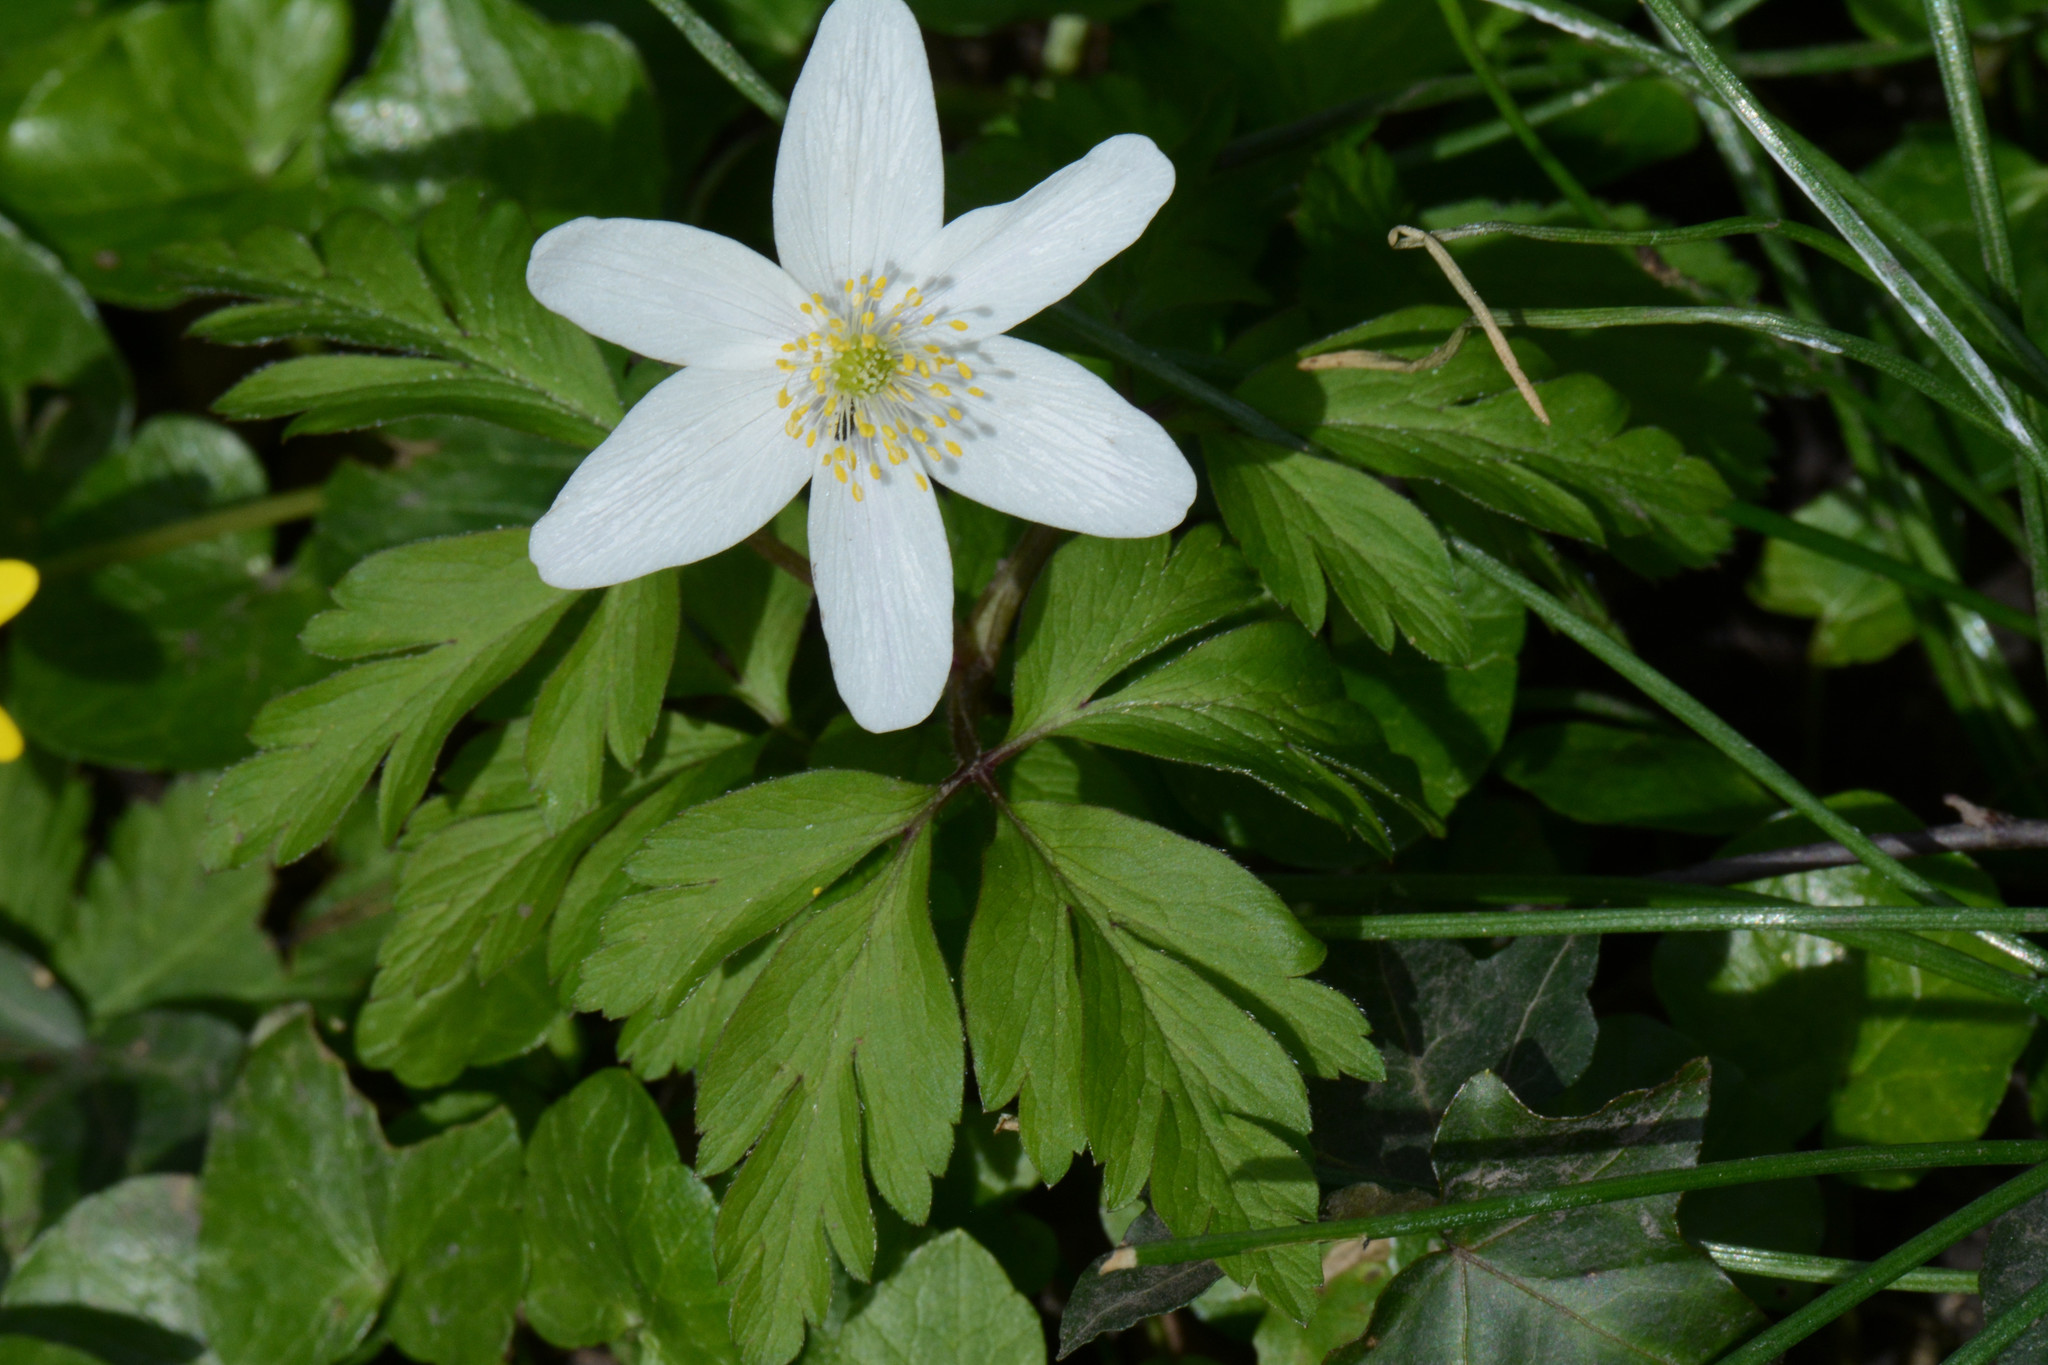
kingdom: Plantae
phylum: Tracheophyta
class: Magnoliopsida
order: Ranunculales
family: Ranunculaceae
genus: Anemone
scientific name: Anemone nemorosa
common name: Wood anemone
